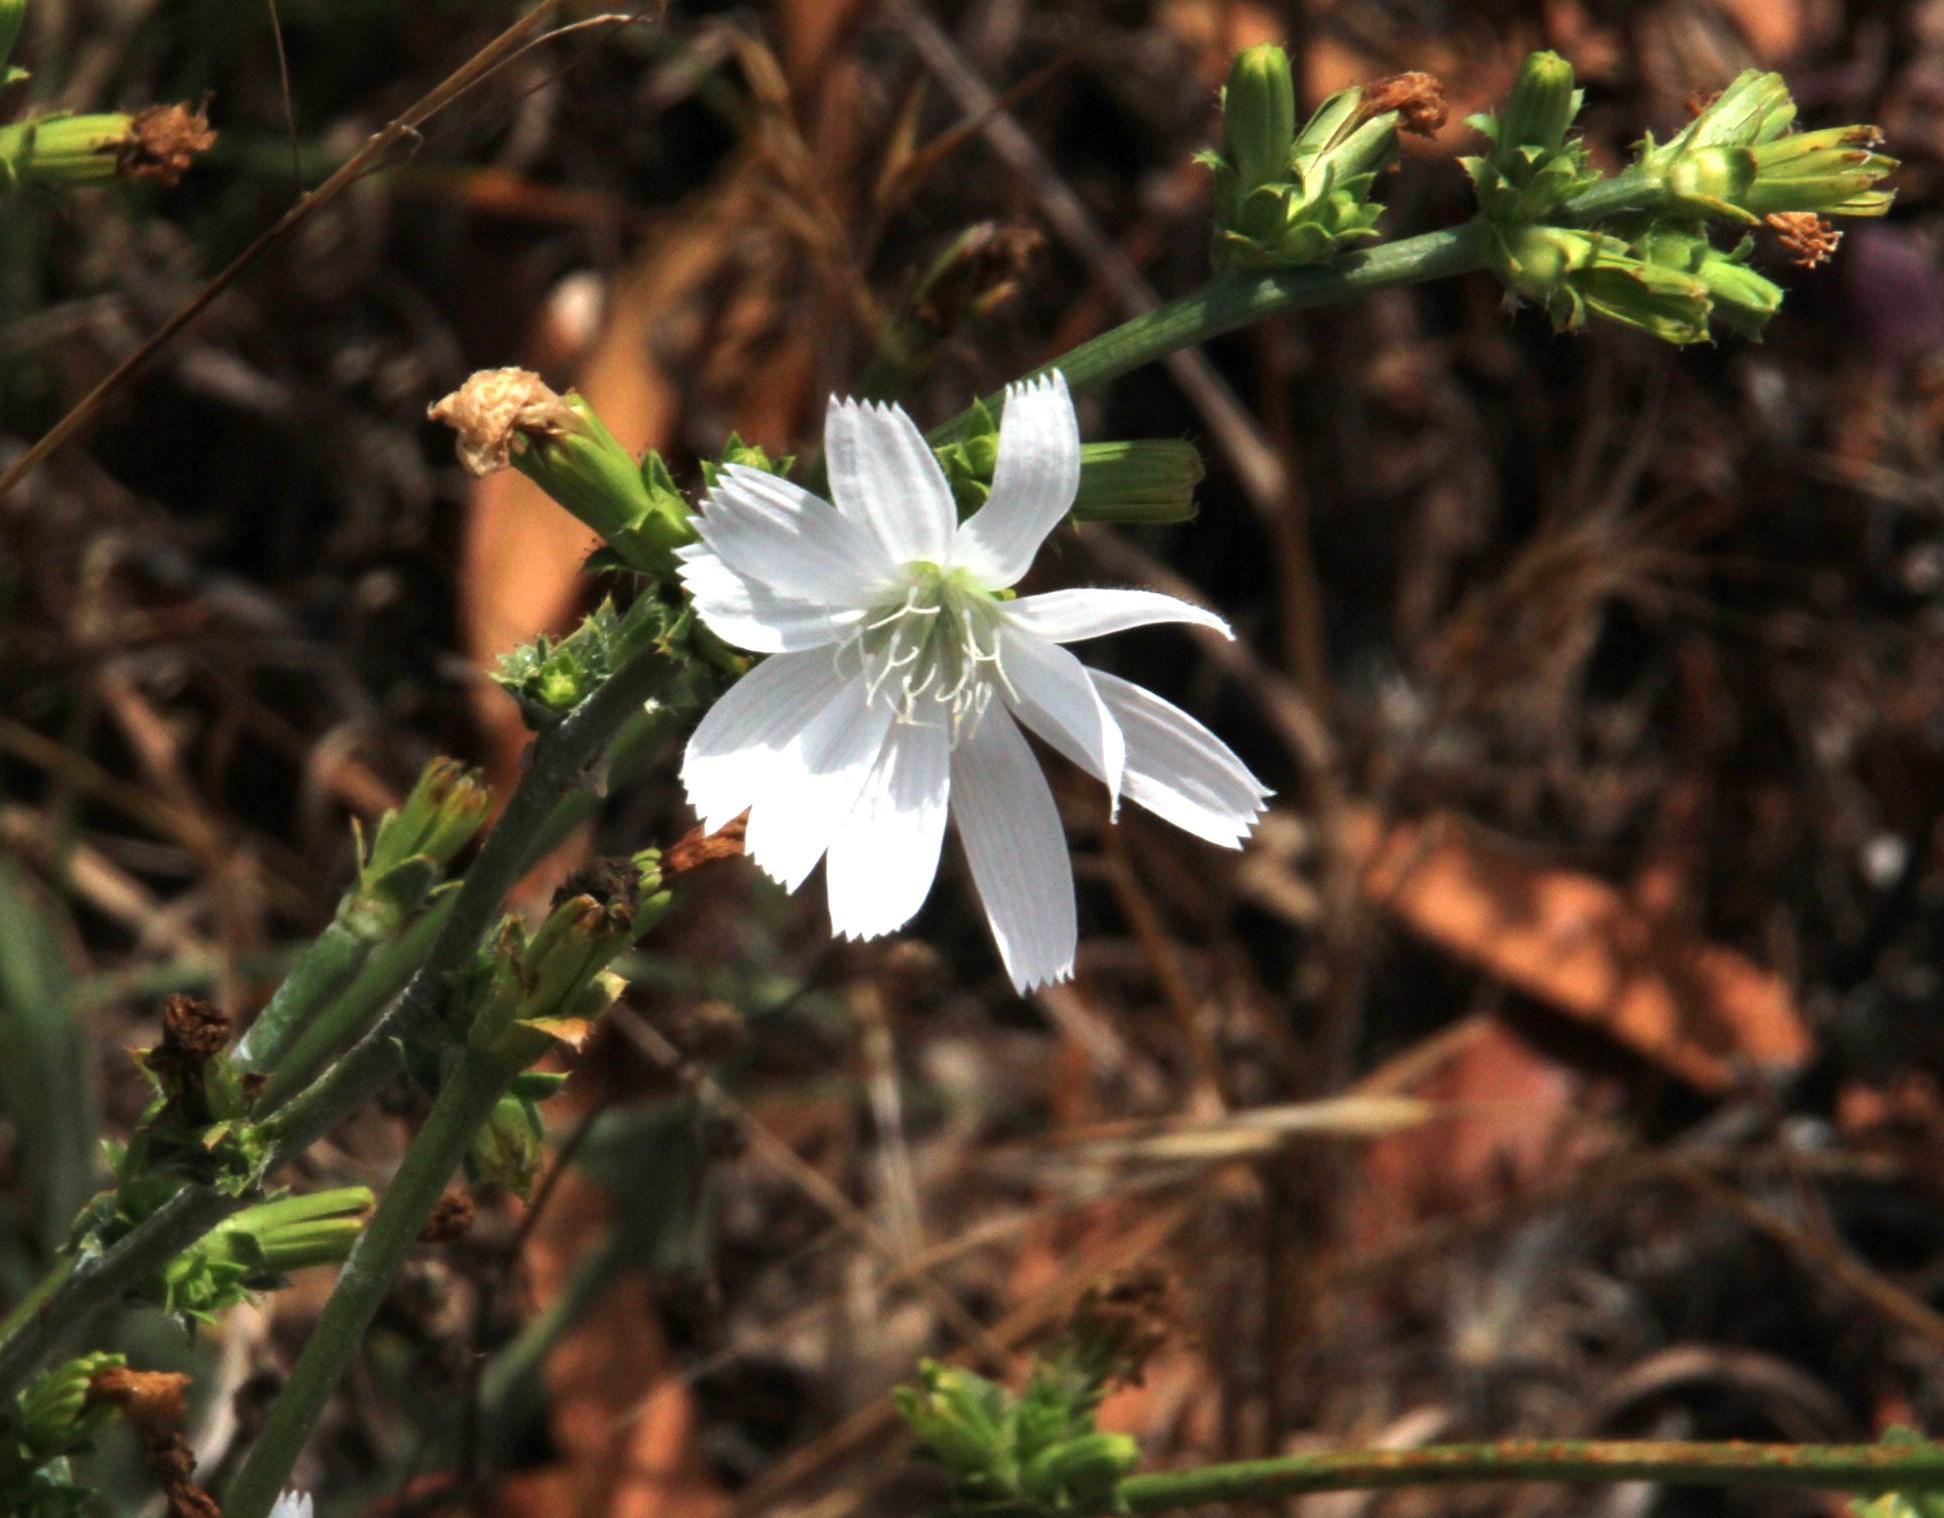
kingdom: Plantae
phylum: Tracheophyta
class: Magnoliopsida
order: Asterales
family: Asteraceae
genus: Cichorium
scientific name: Cichorium intybus
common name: Chicory
